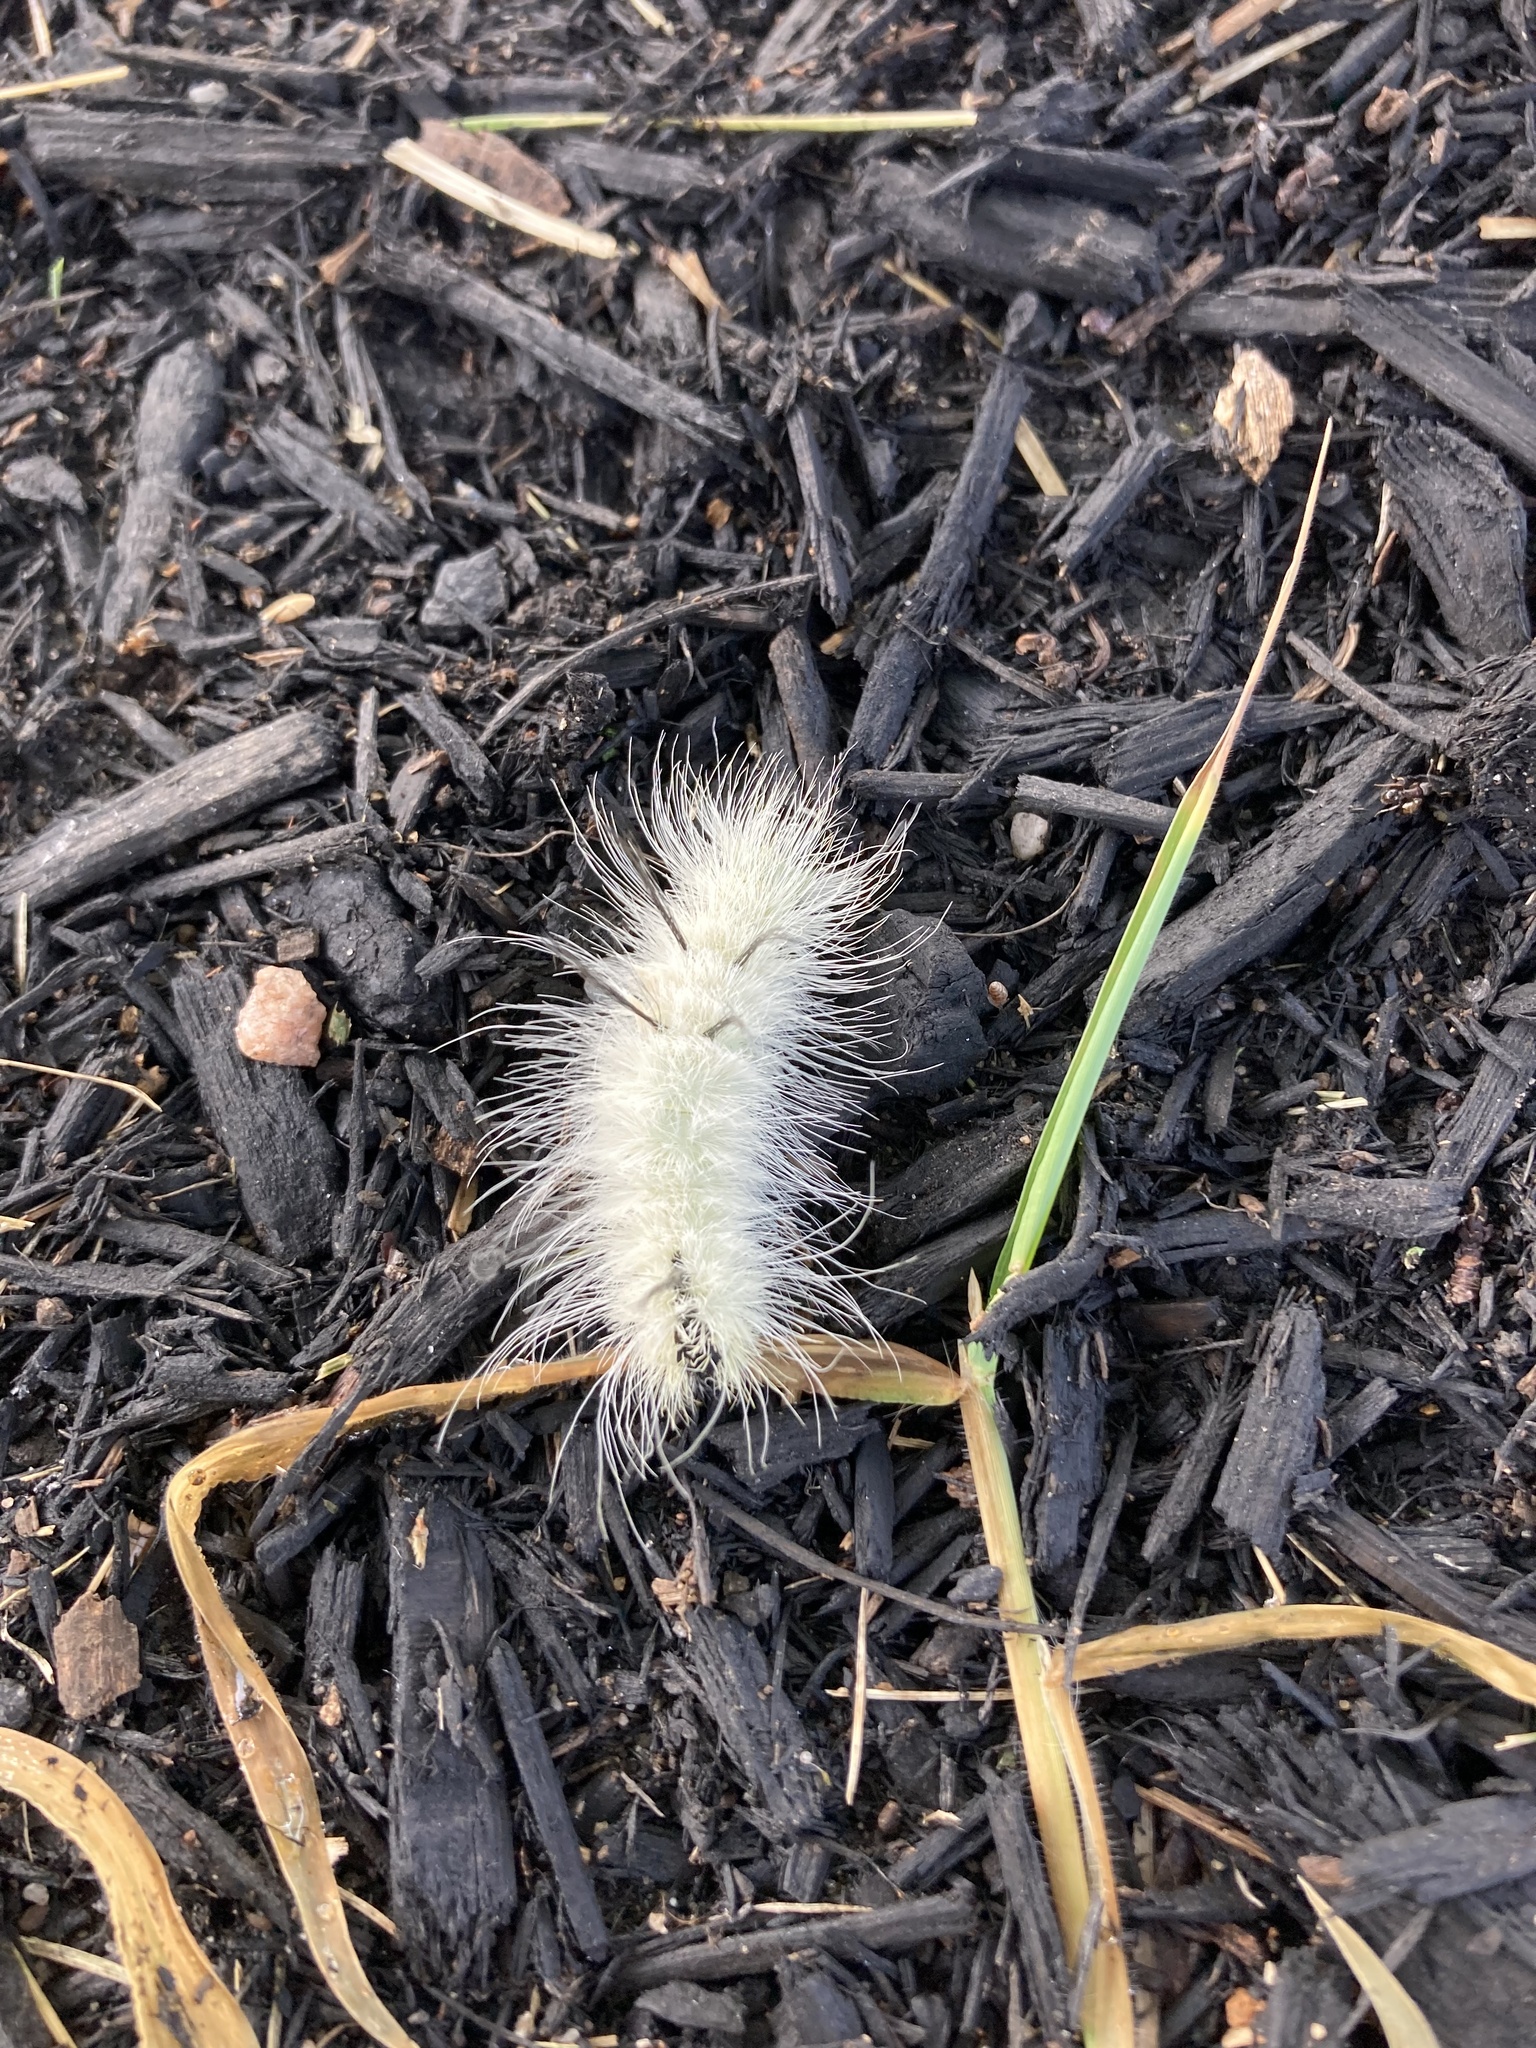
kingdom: Animalia
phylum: Arthropoda
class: Insecta
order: Lepidoptera
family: Noctuidae
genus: Acronicta
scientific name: Acronicta americana
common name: American dagger
